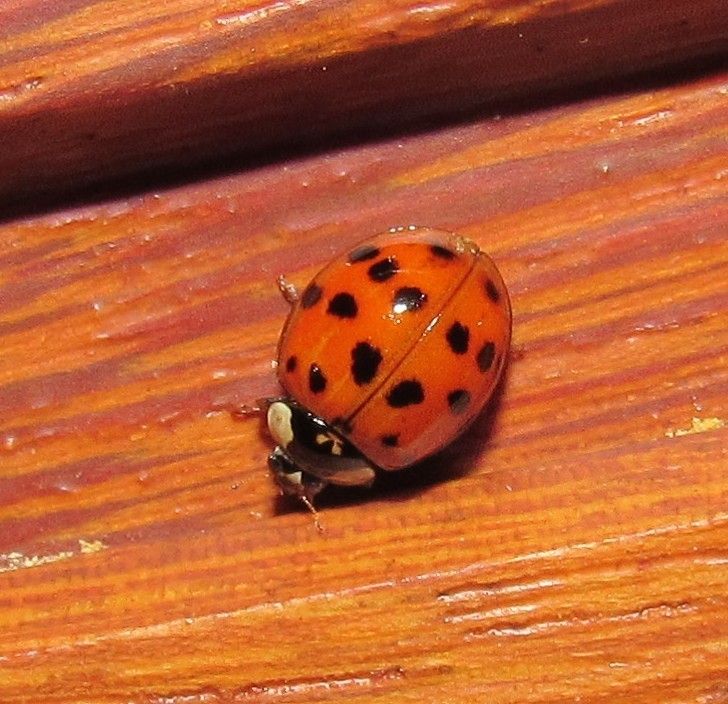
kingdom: Animalia
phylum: Arthropoda
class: Insecta
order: Coleoptera
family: Coccinellidae
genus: Harmonia
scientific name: Harmonia axyridis
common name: Harlequin ladybird
